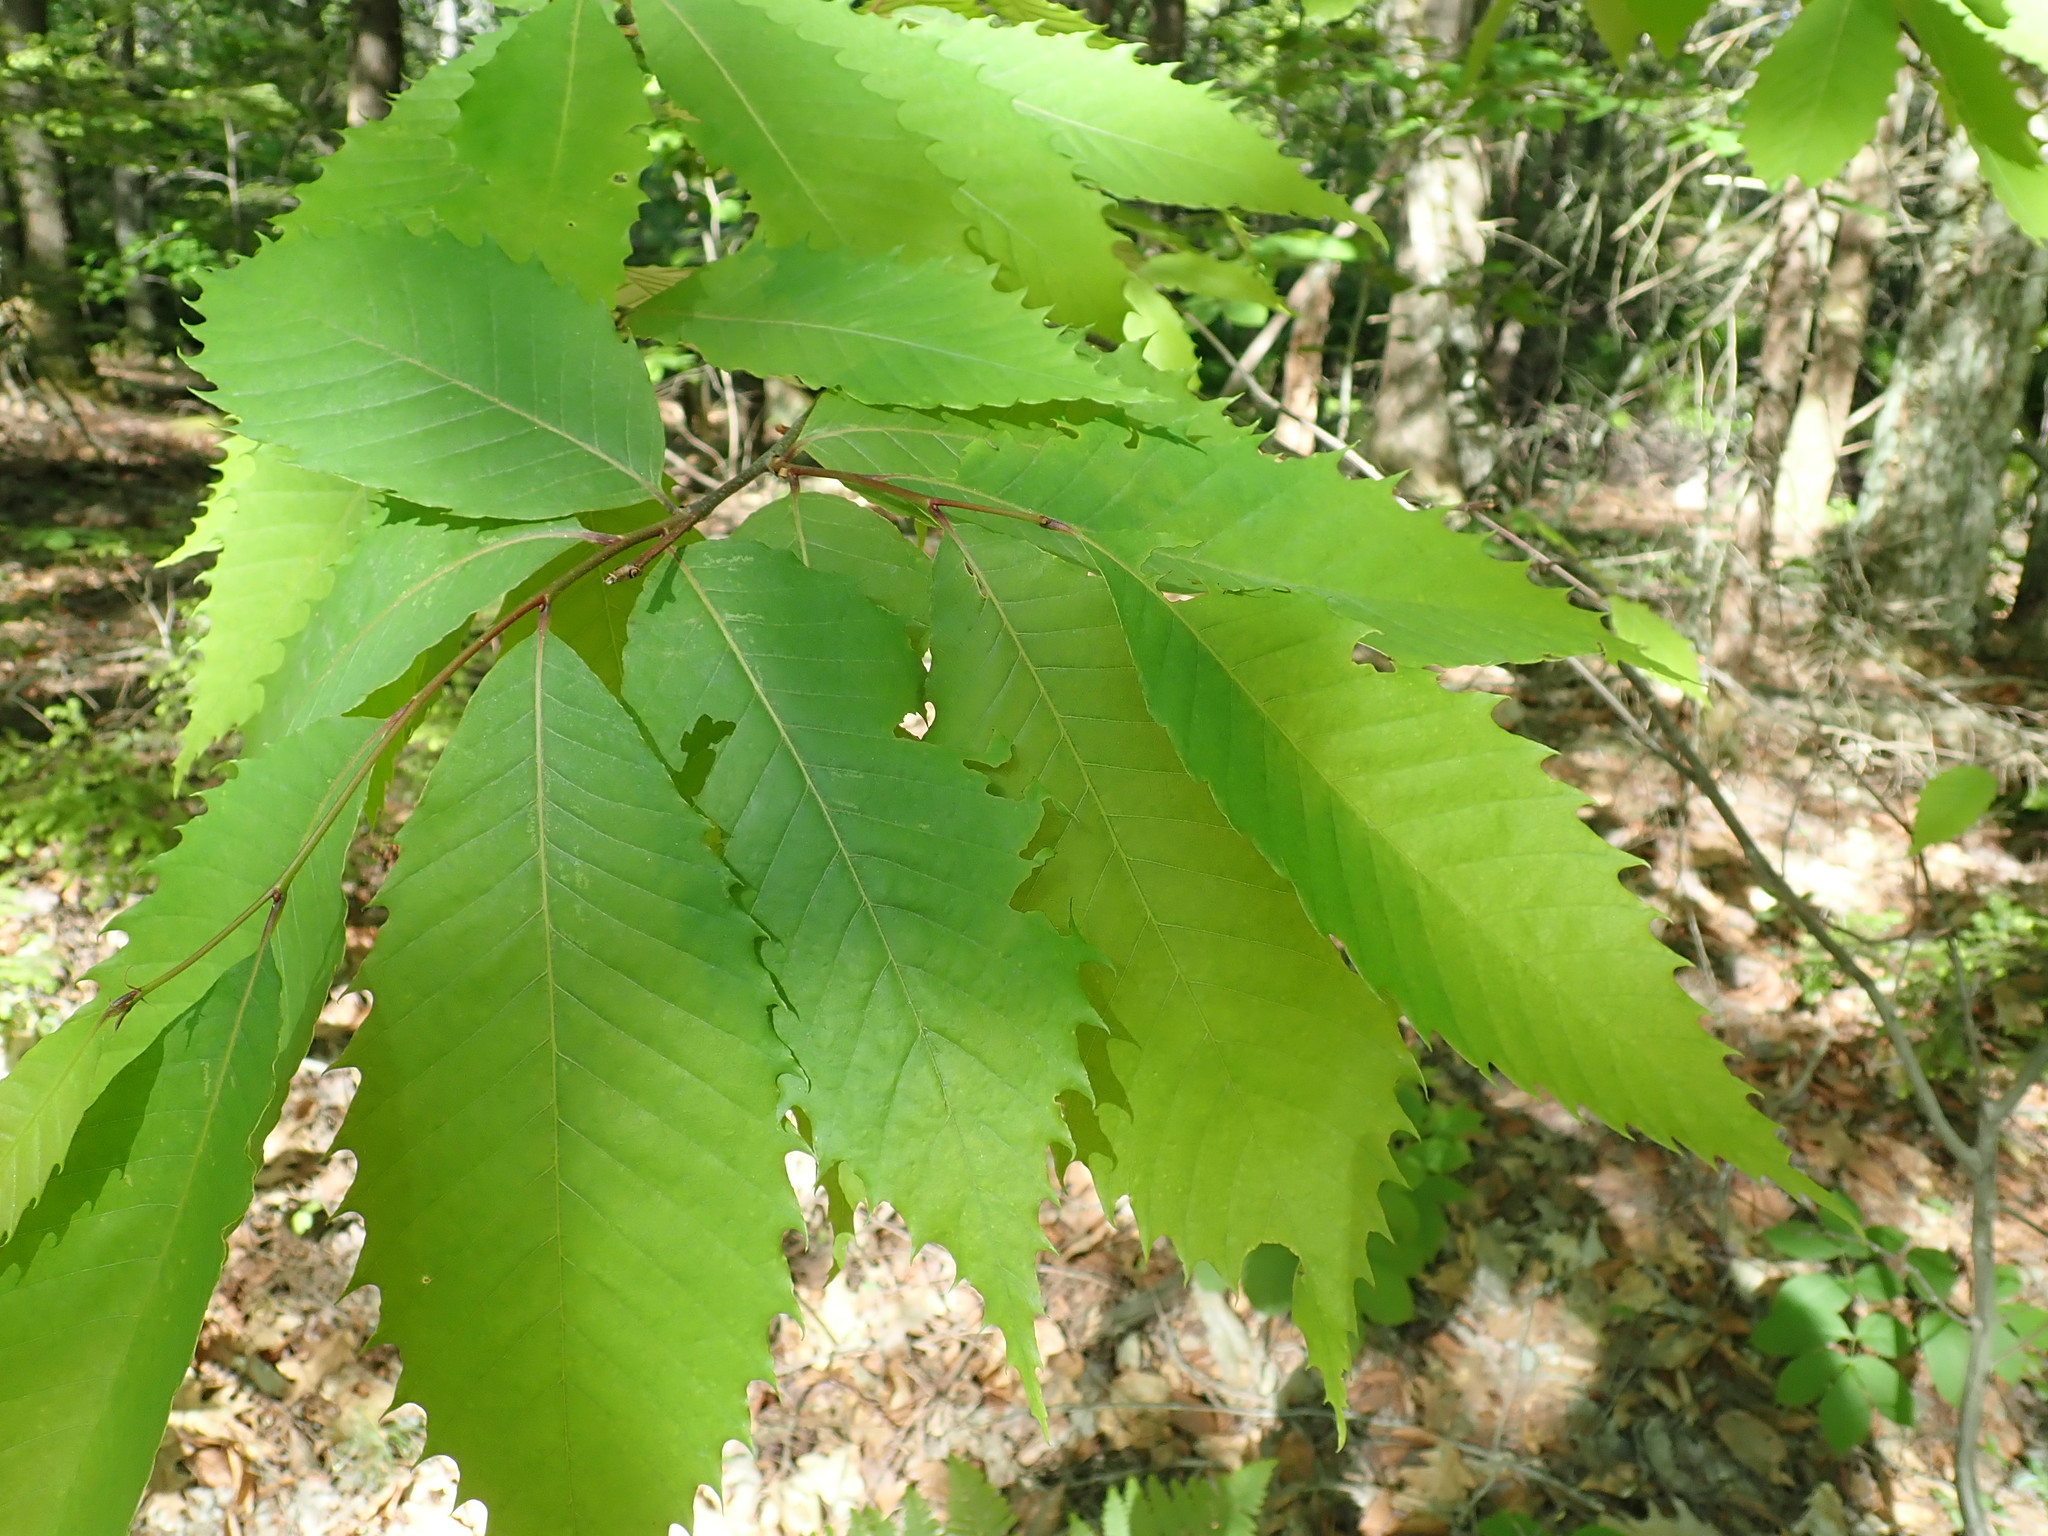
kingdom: Plantae
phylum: Tracheophyta
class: Magnoliopsida
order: Fagales
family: Fagaceae
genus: Castanea
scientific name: Castanea dentata
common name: American chestnut
